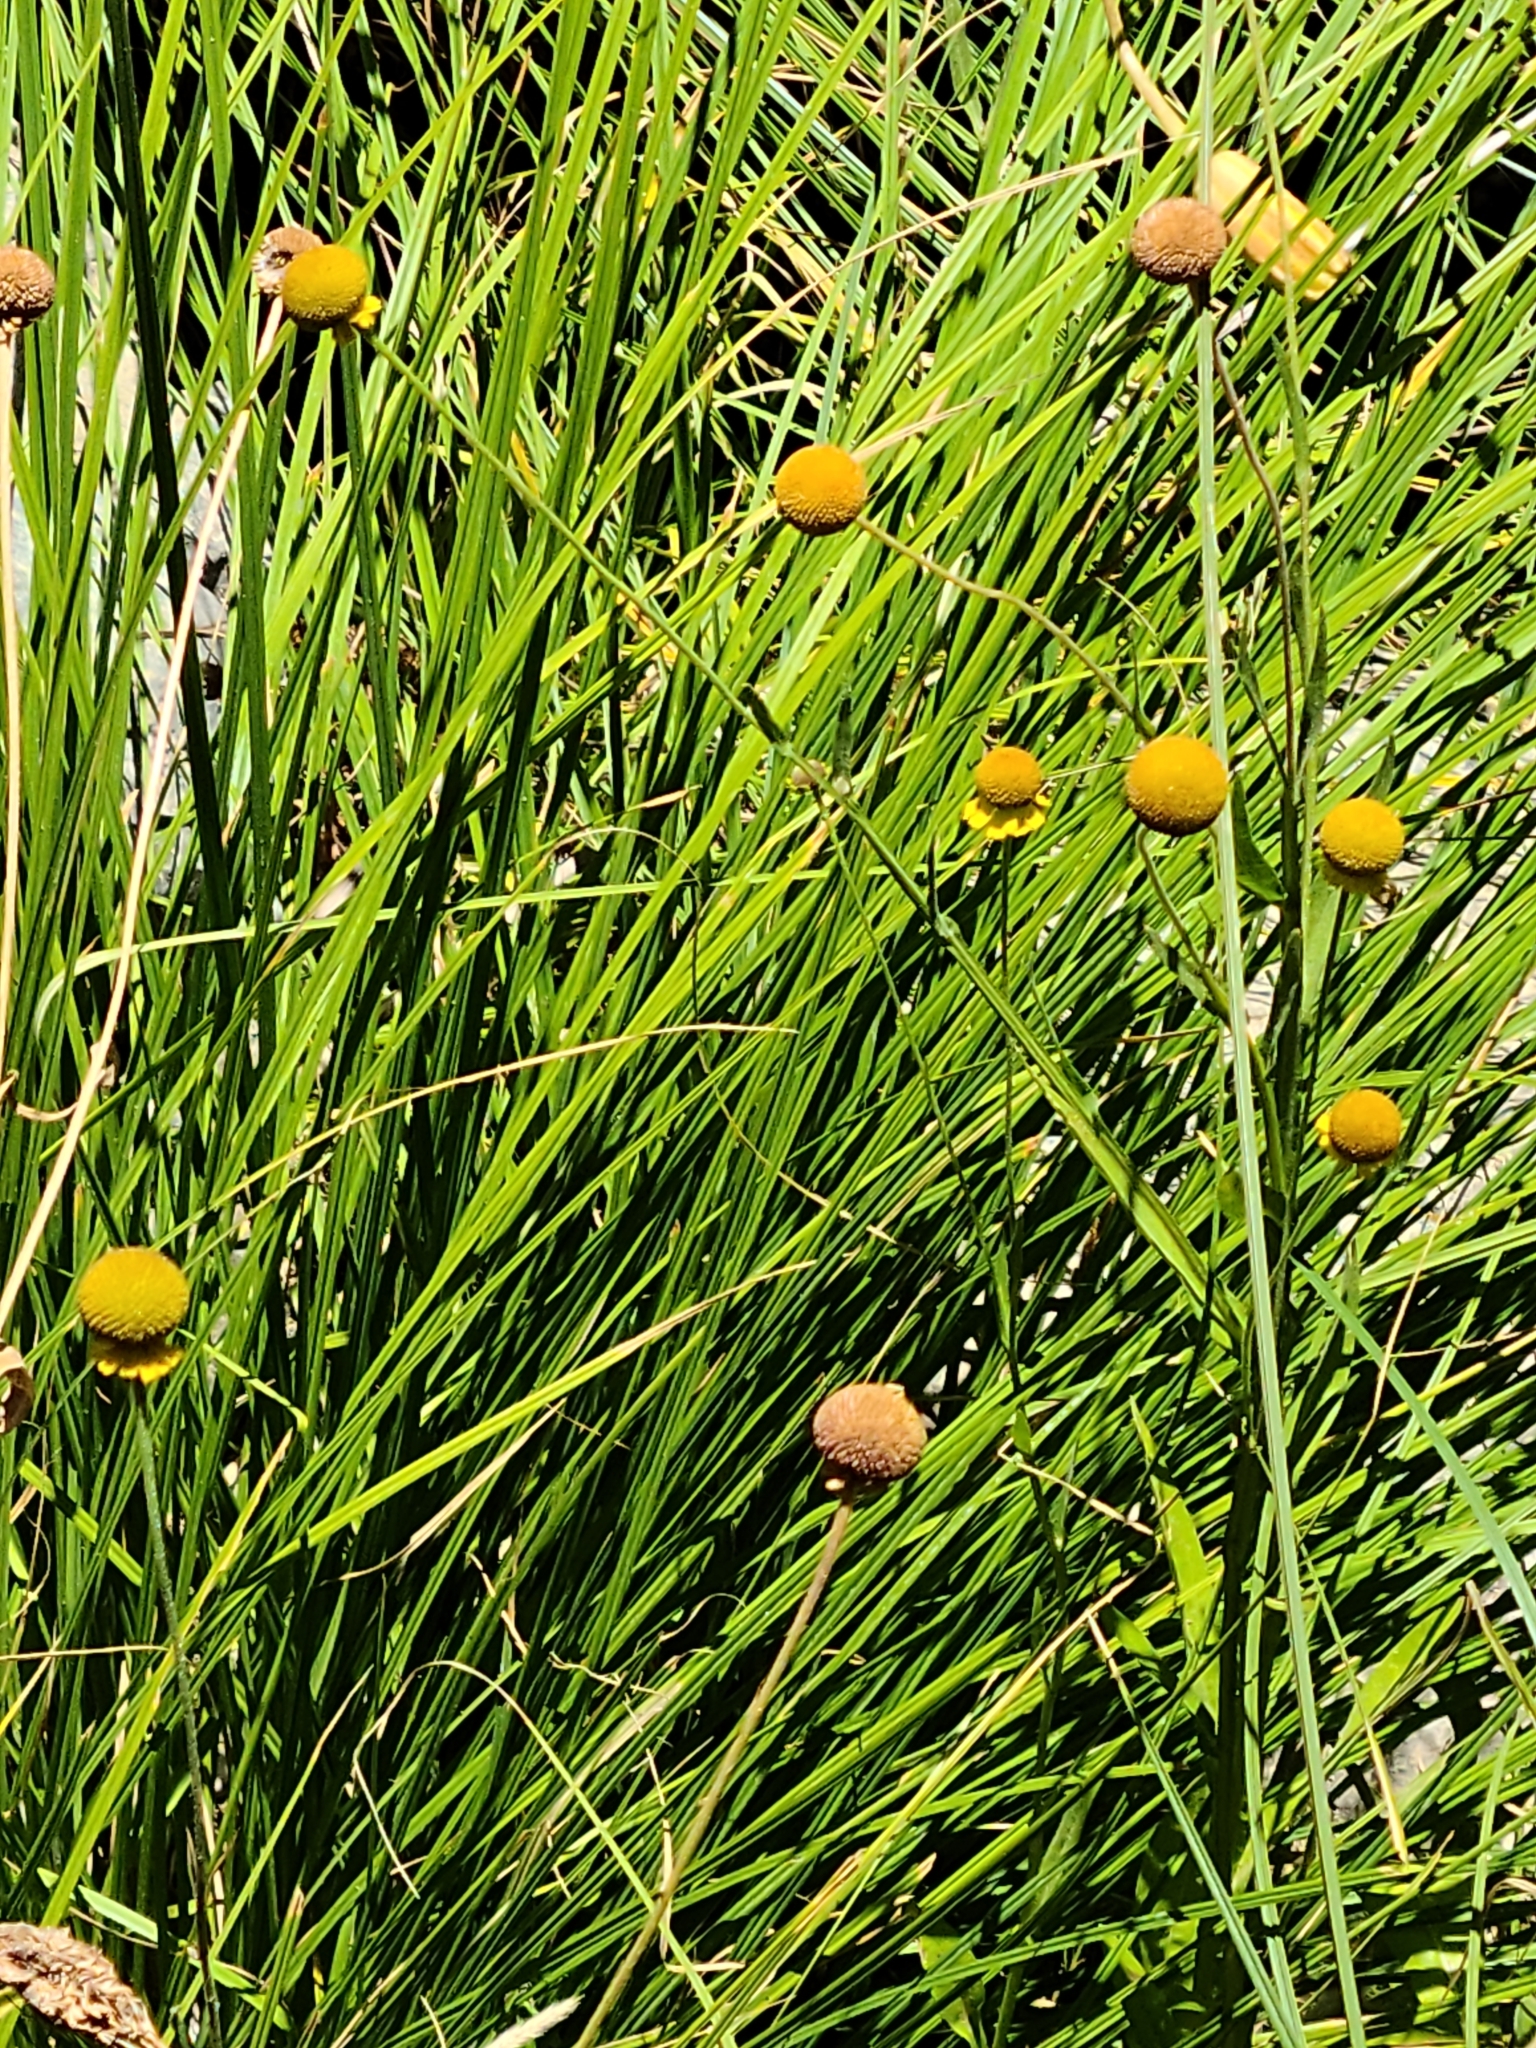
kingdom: Plantae
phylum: Tracheophyta
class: Magnoliopsida
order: Asterales
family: Asteraceae
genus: Helenium
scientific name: Helenium puberulum
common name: Sneezewort
